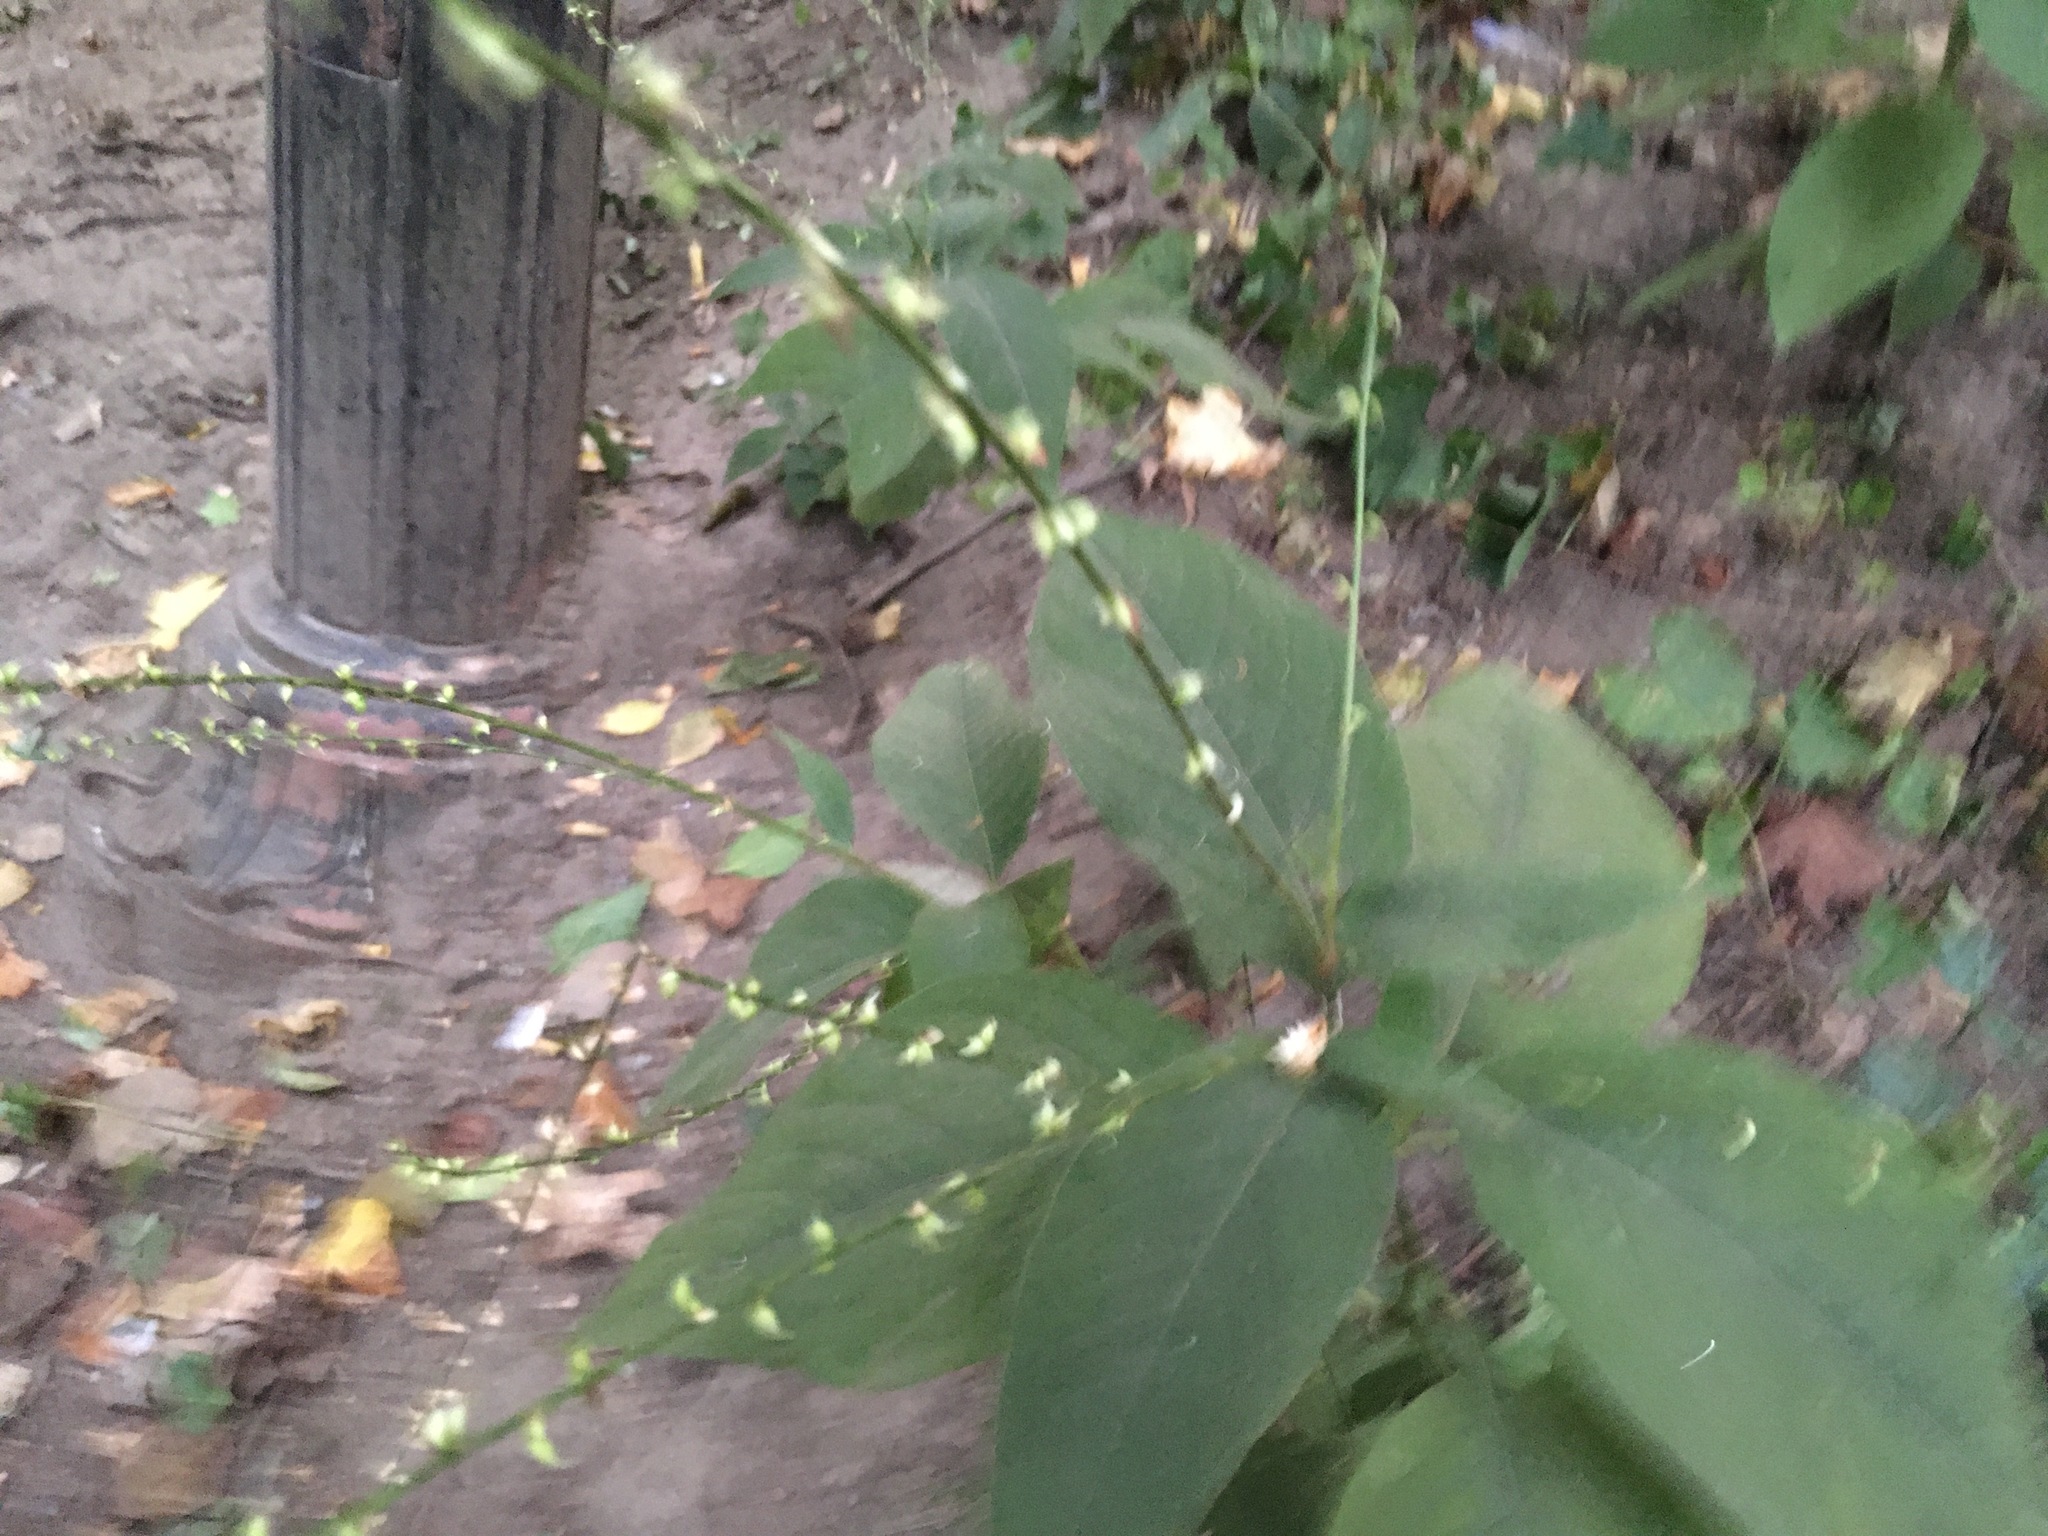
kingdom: Plantae
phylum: Tracheophyta
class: Magnoliopsida
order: Caryophyllales
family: Polygonaceae
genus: Persicaria
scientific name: Persicaria virginiana
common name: Jumpseed
